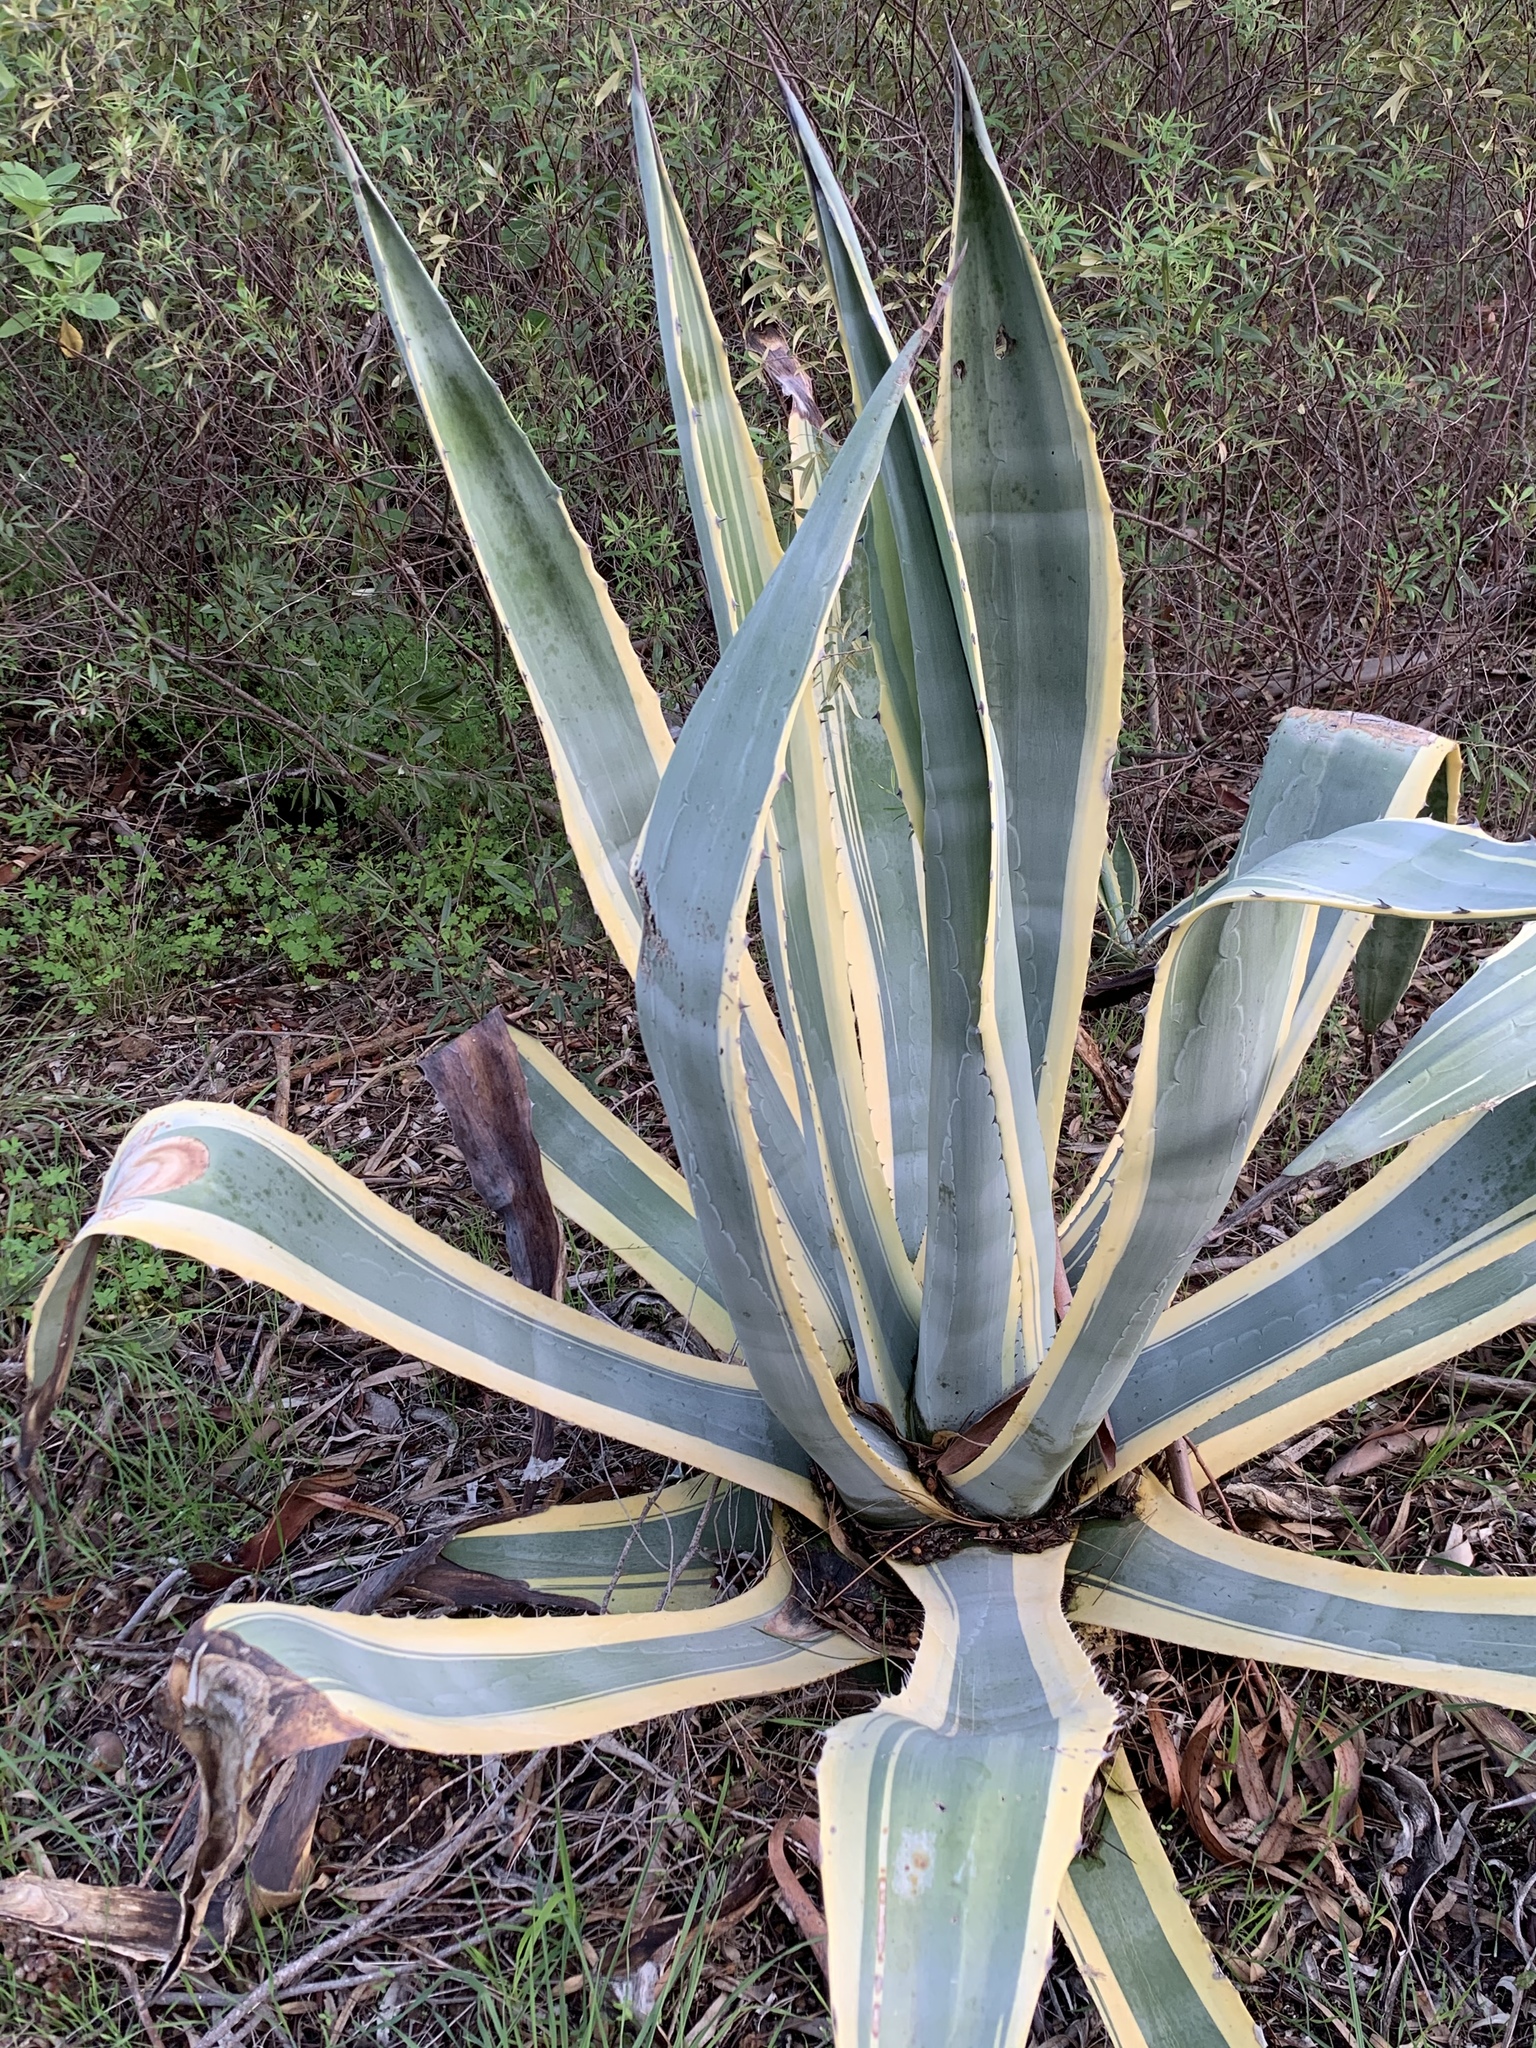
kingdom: Plantae
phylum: Tracheophyta
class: Liliopsida
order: Asparagales
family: Asparagaceae
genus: Agave
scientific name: Agave americana
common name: Centuryplant
